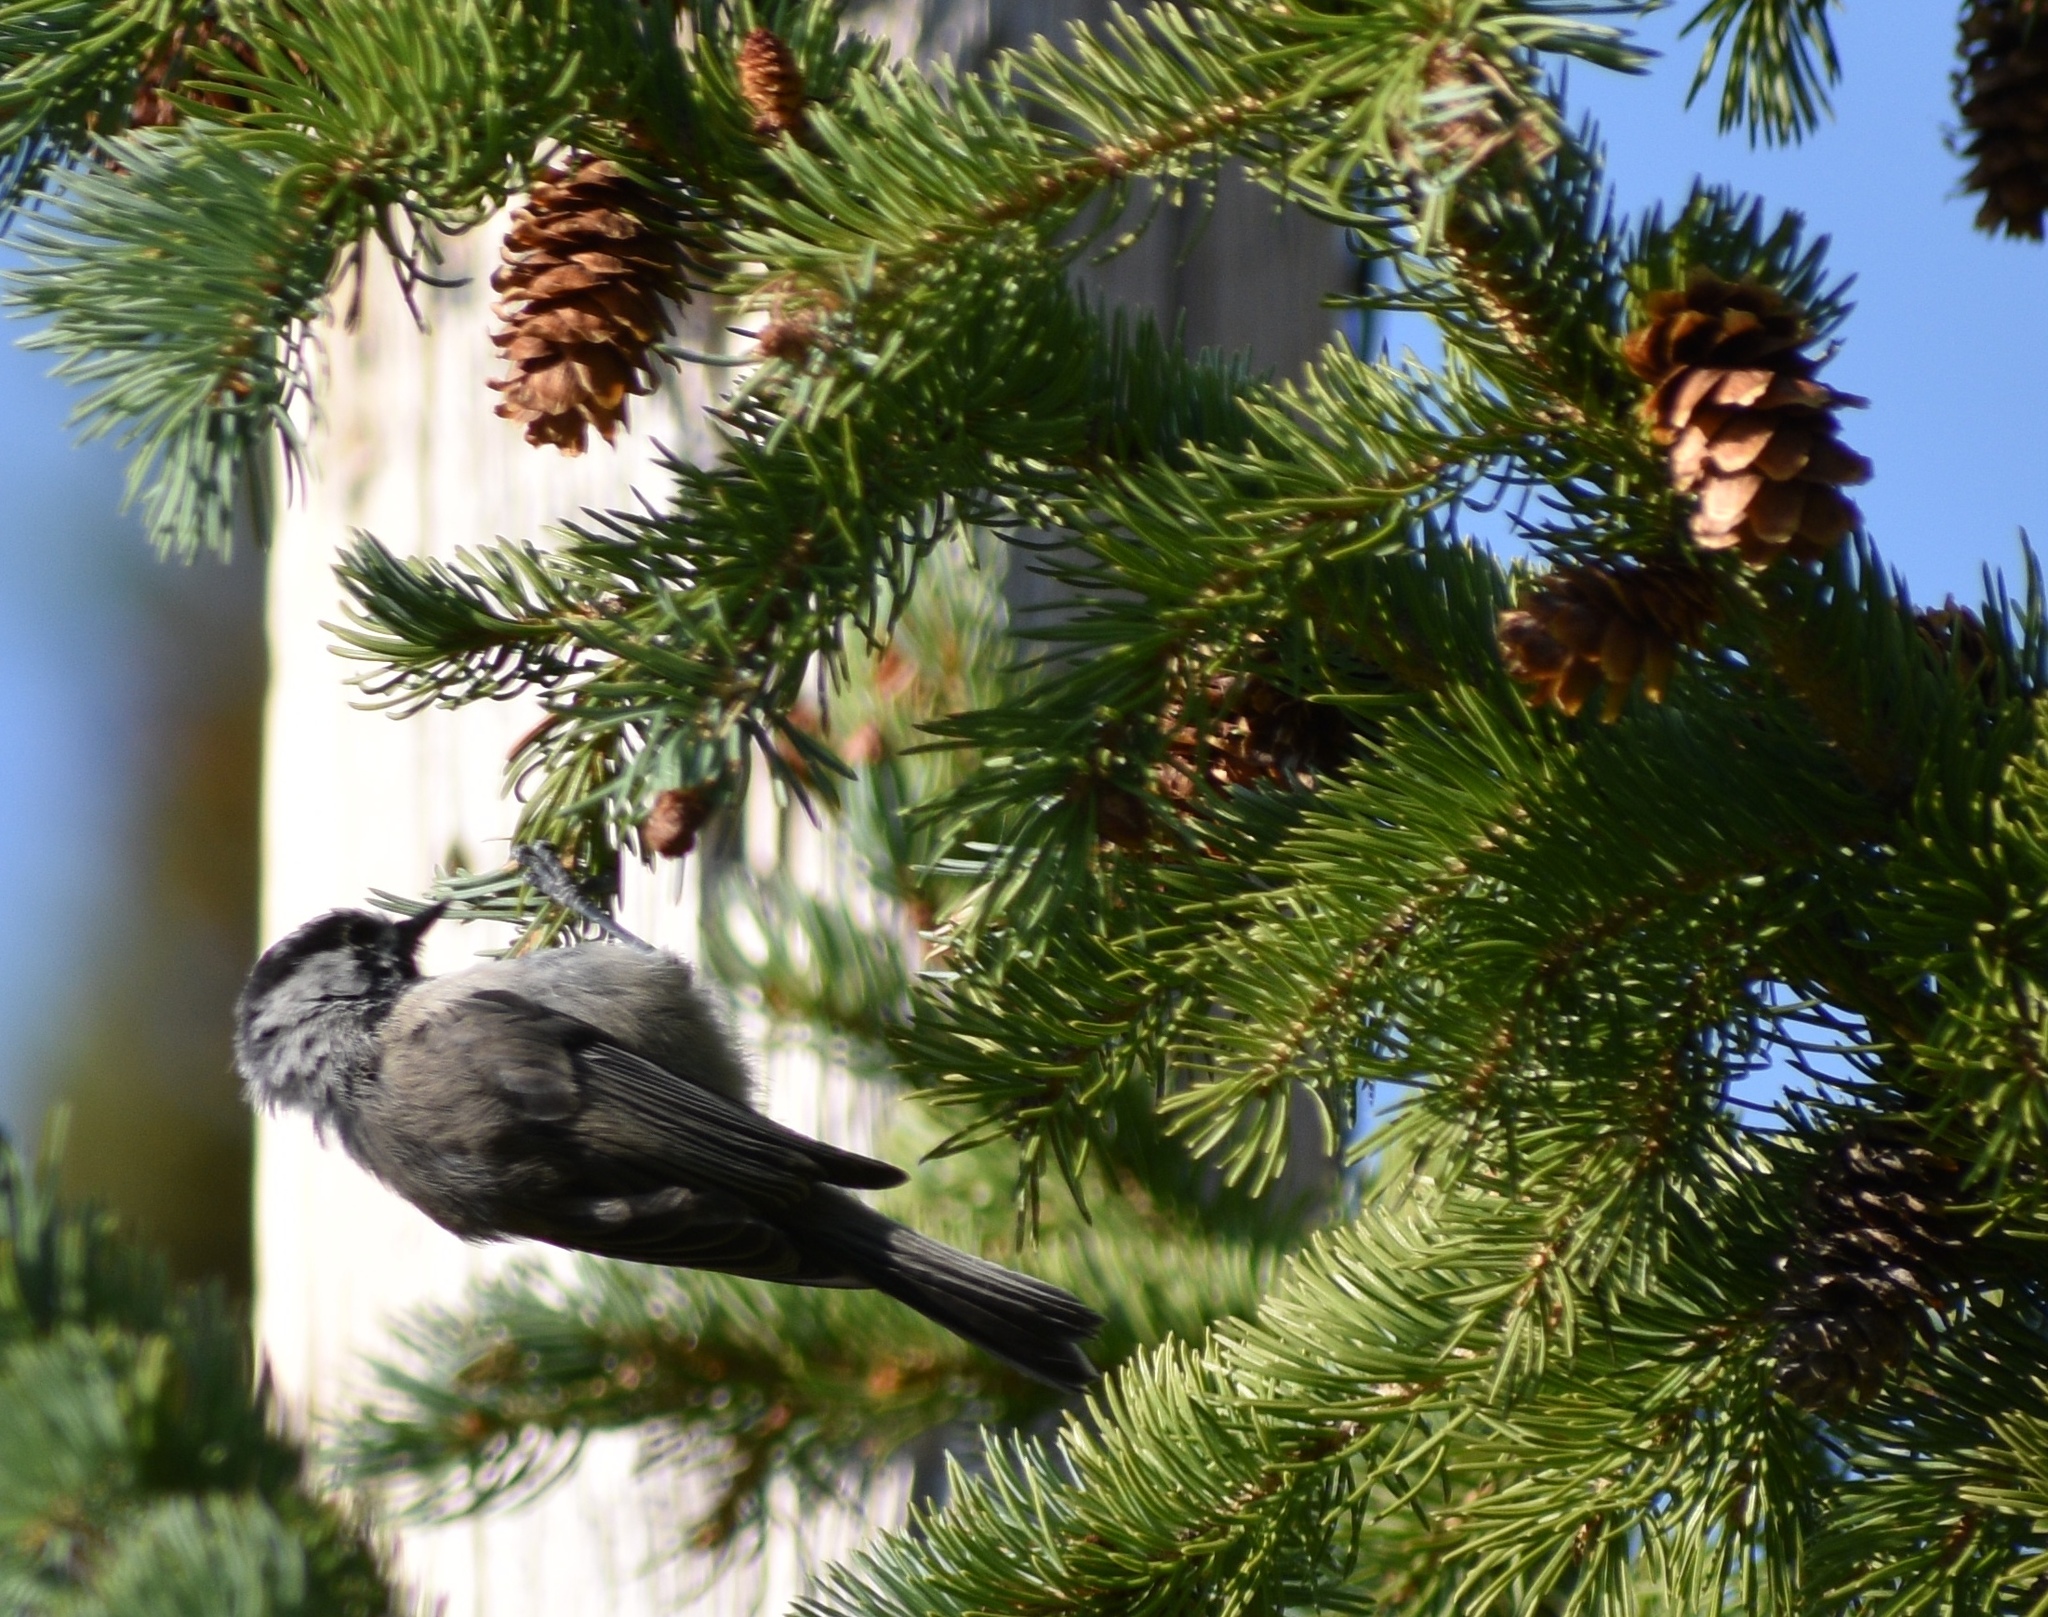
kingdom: Animalia
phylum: Chordata
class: Aves
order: Passeriformes
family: Paridae
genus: Poecile
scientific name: Poecile gambeli
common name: Mountain chickadee
